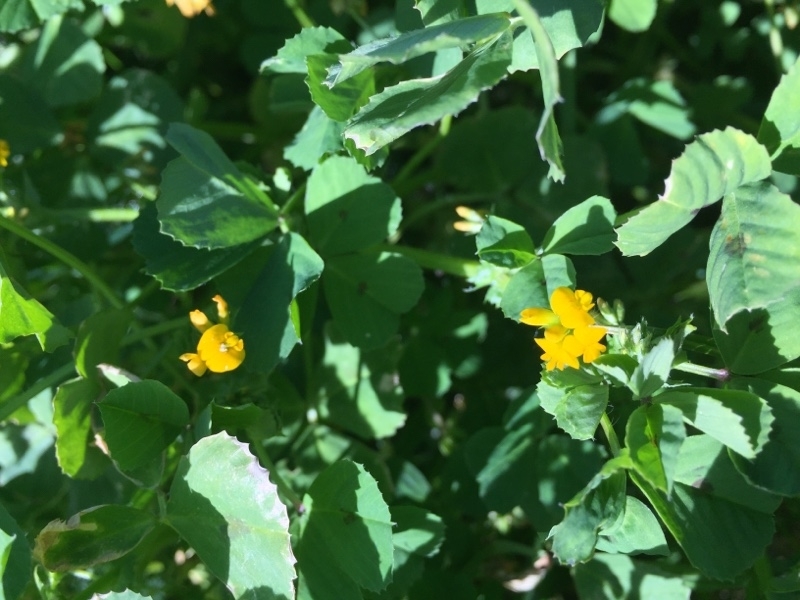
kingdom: Plantae
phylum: Tracheophyta
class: Magnoliopsida
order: Fabales
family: Fabaceae
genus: Medicago
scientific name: Medicago arabica
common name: Spotted medick
